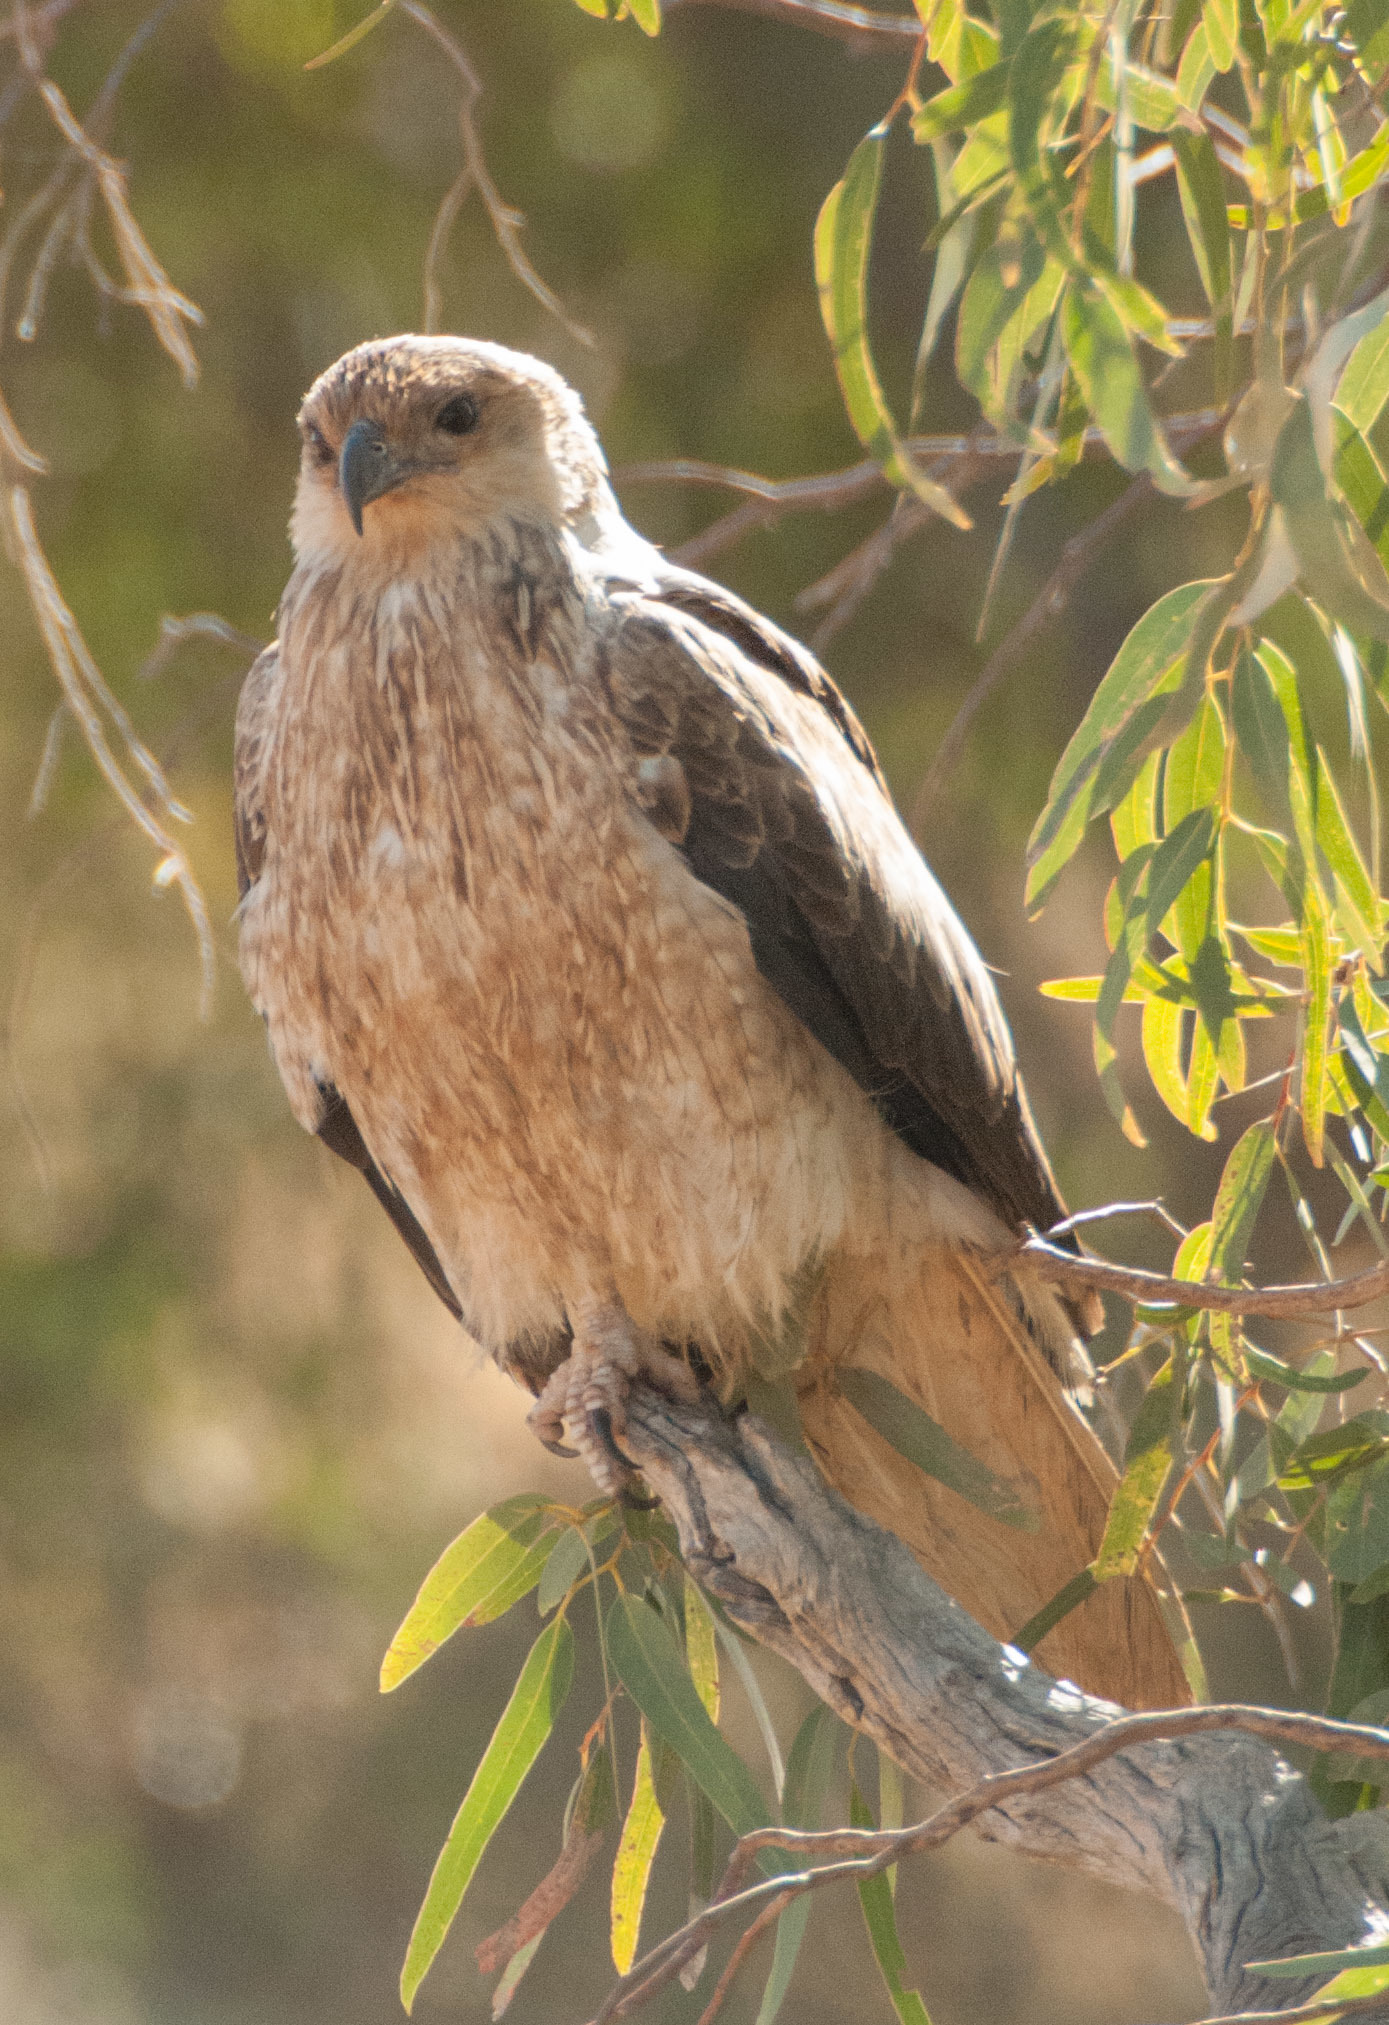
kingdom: Animalia
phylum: Chordata
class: Aves
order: Accipitriformes
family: Accipitridae
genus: Haliastur
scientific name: Haliastur sphenurus
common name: Whistling kite
